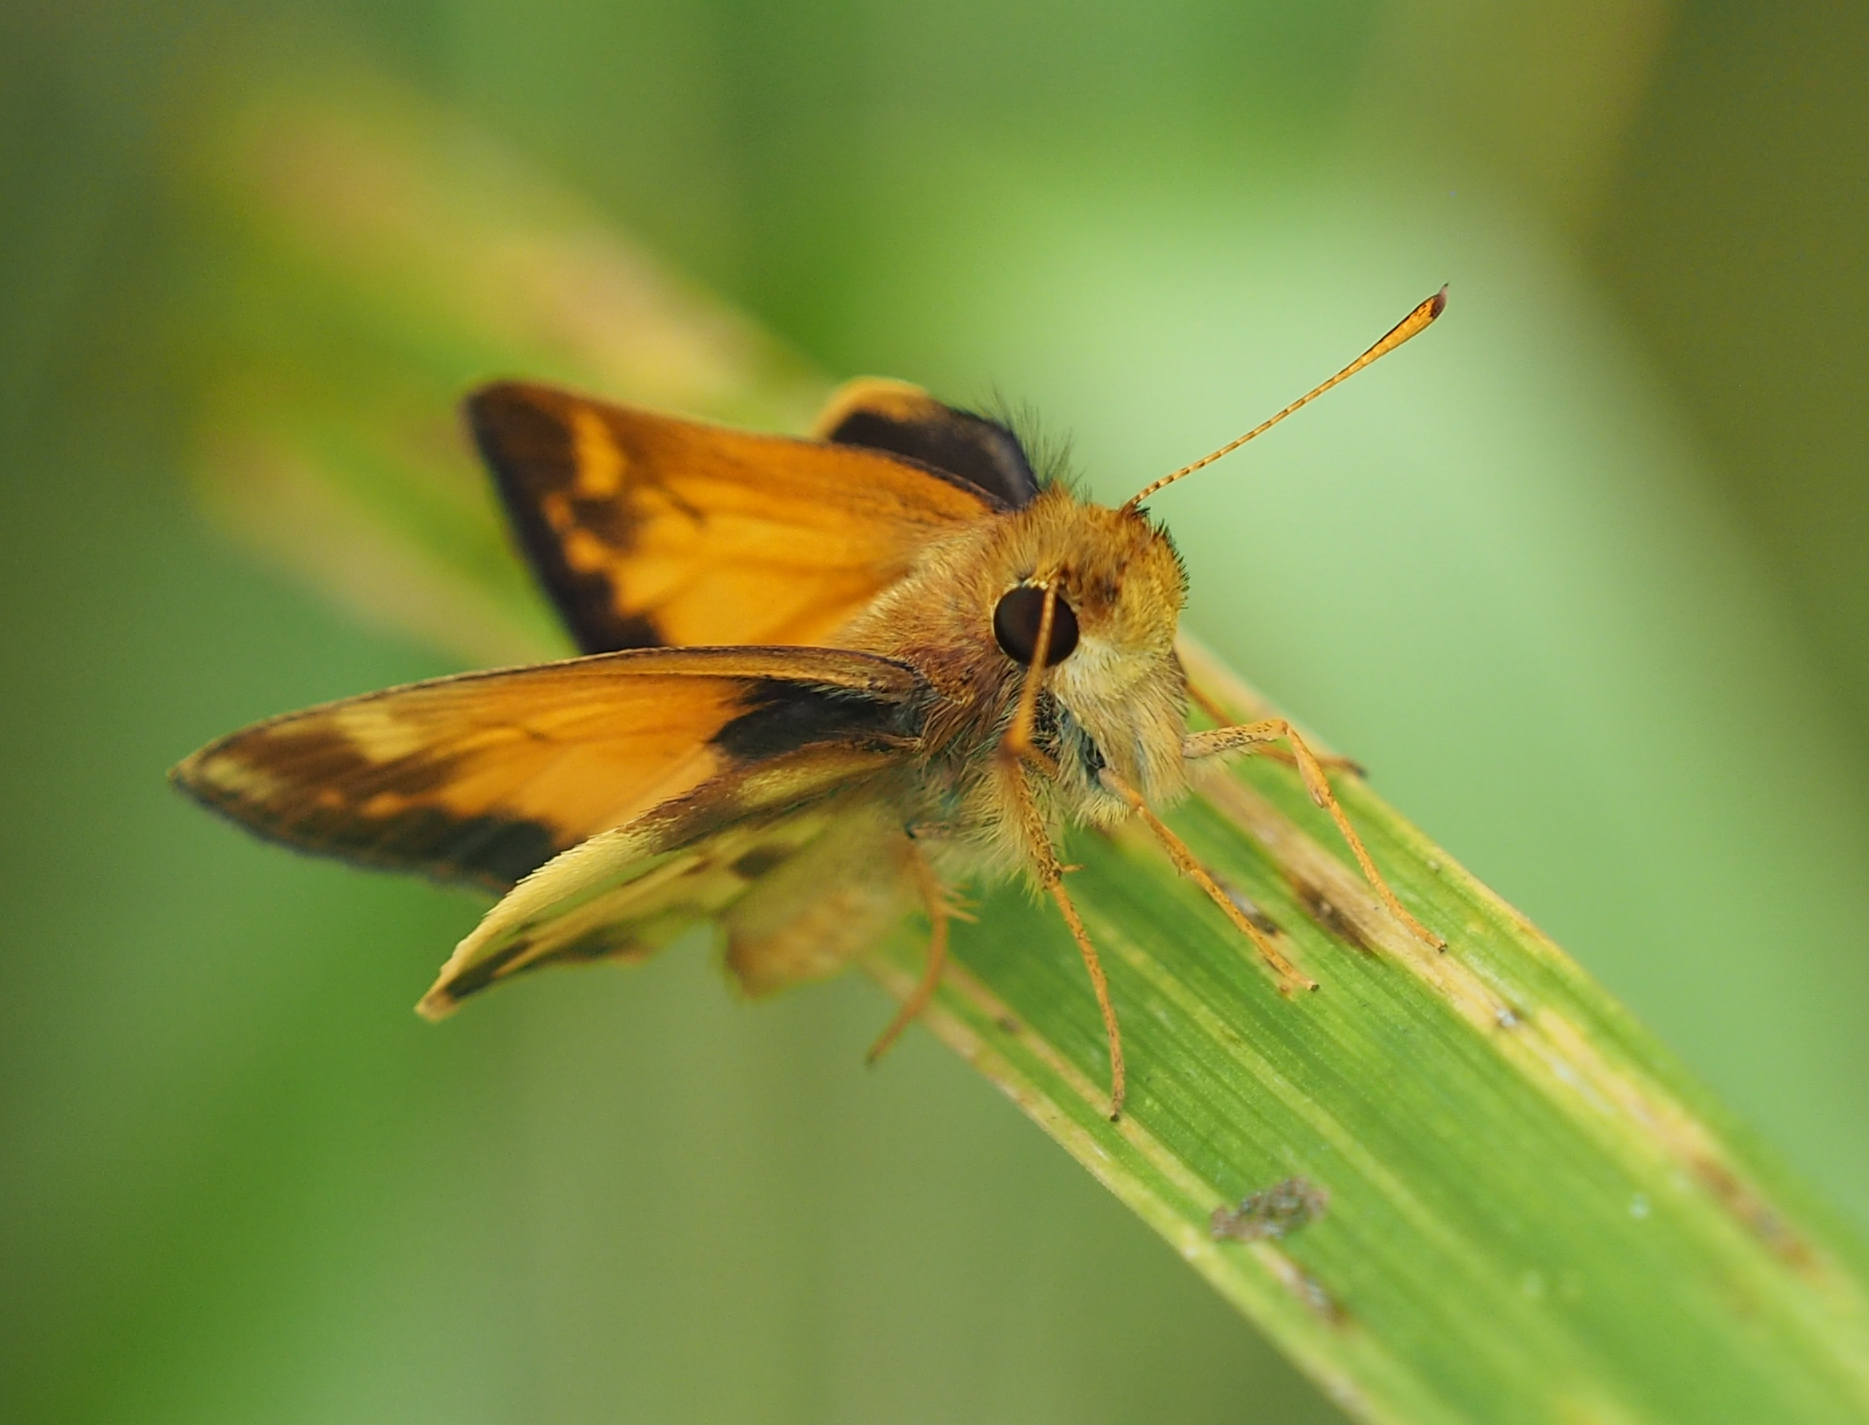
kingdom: Animalia
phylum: Arthropoda
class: Insecta
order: Lepidoptera
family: Hesperiidae
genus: Lon
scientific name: Lon zabulon
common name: Zabulon skipper
